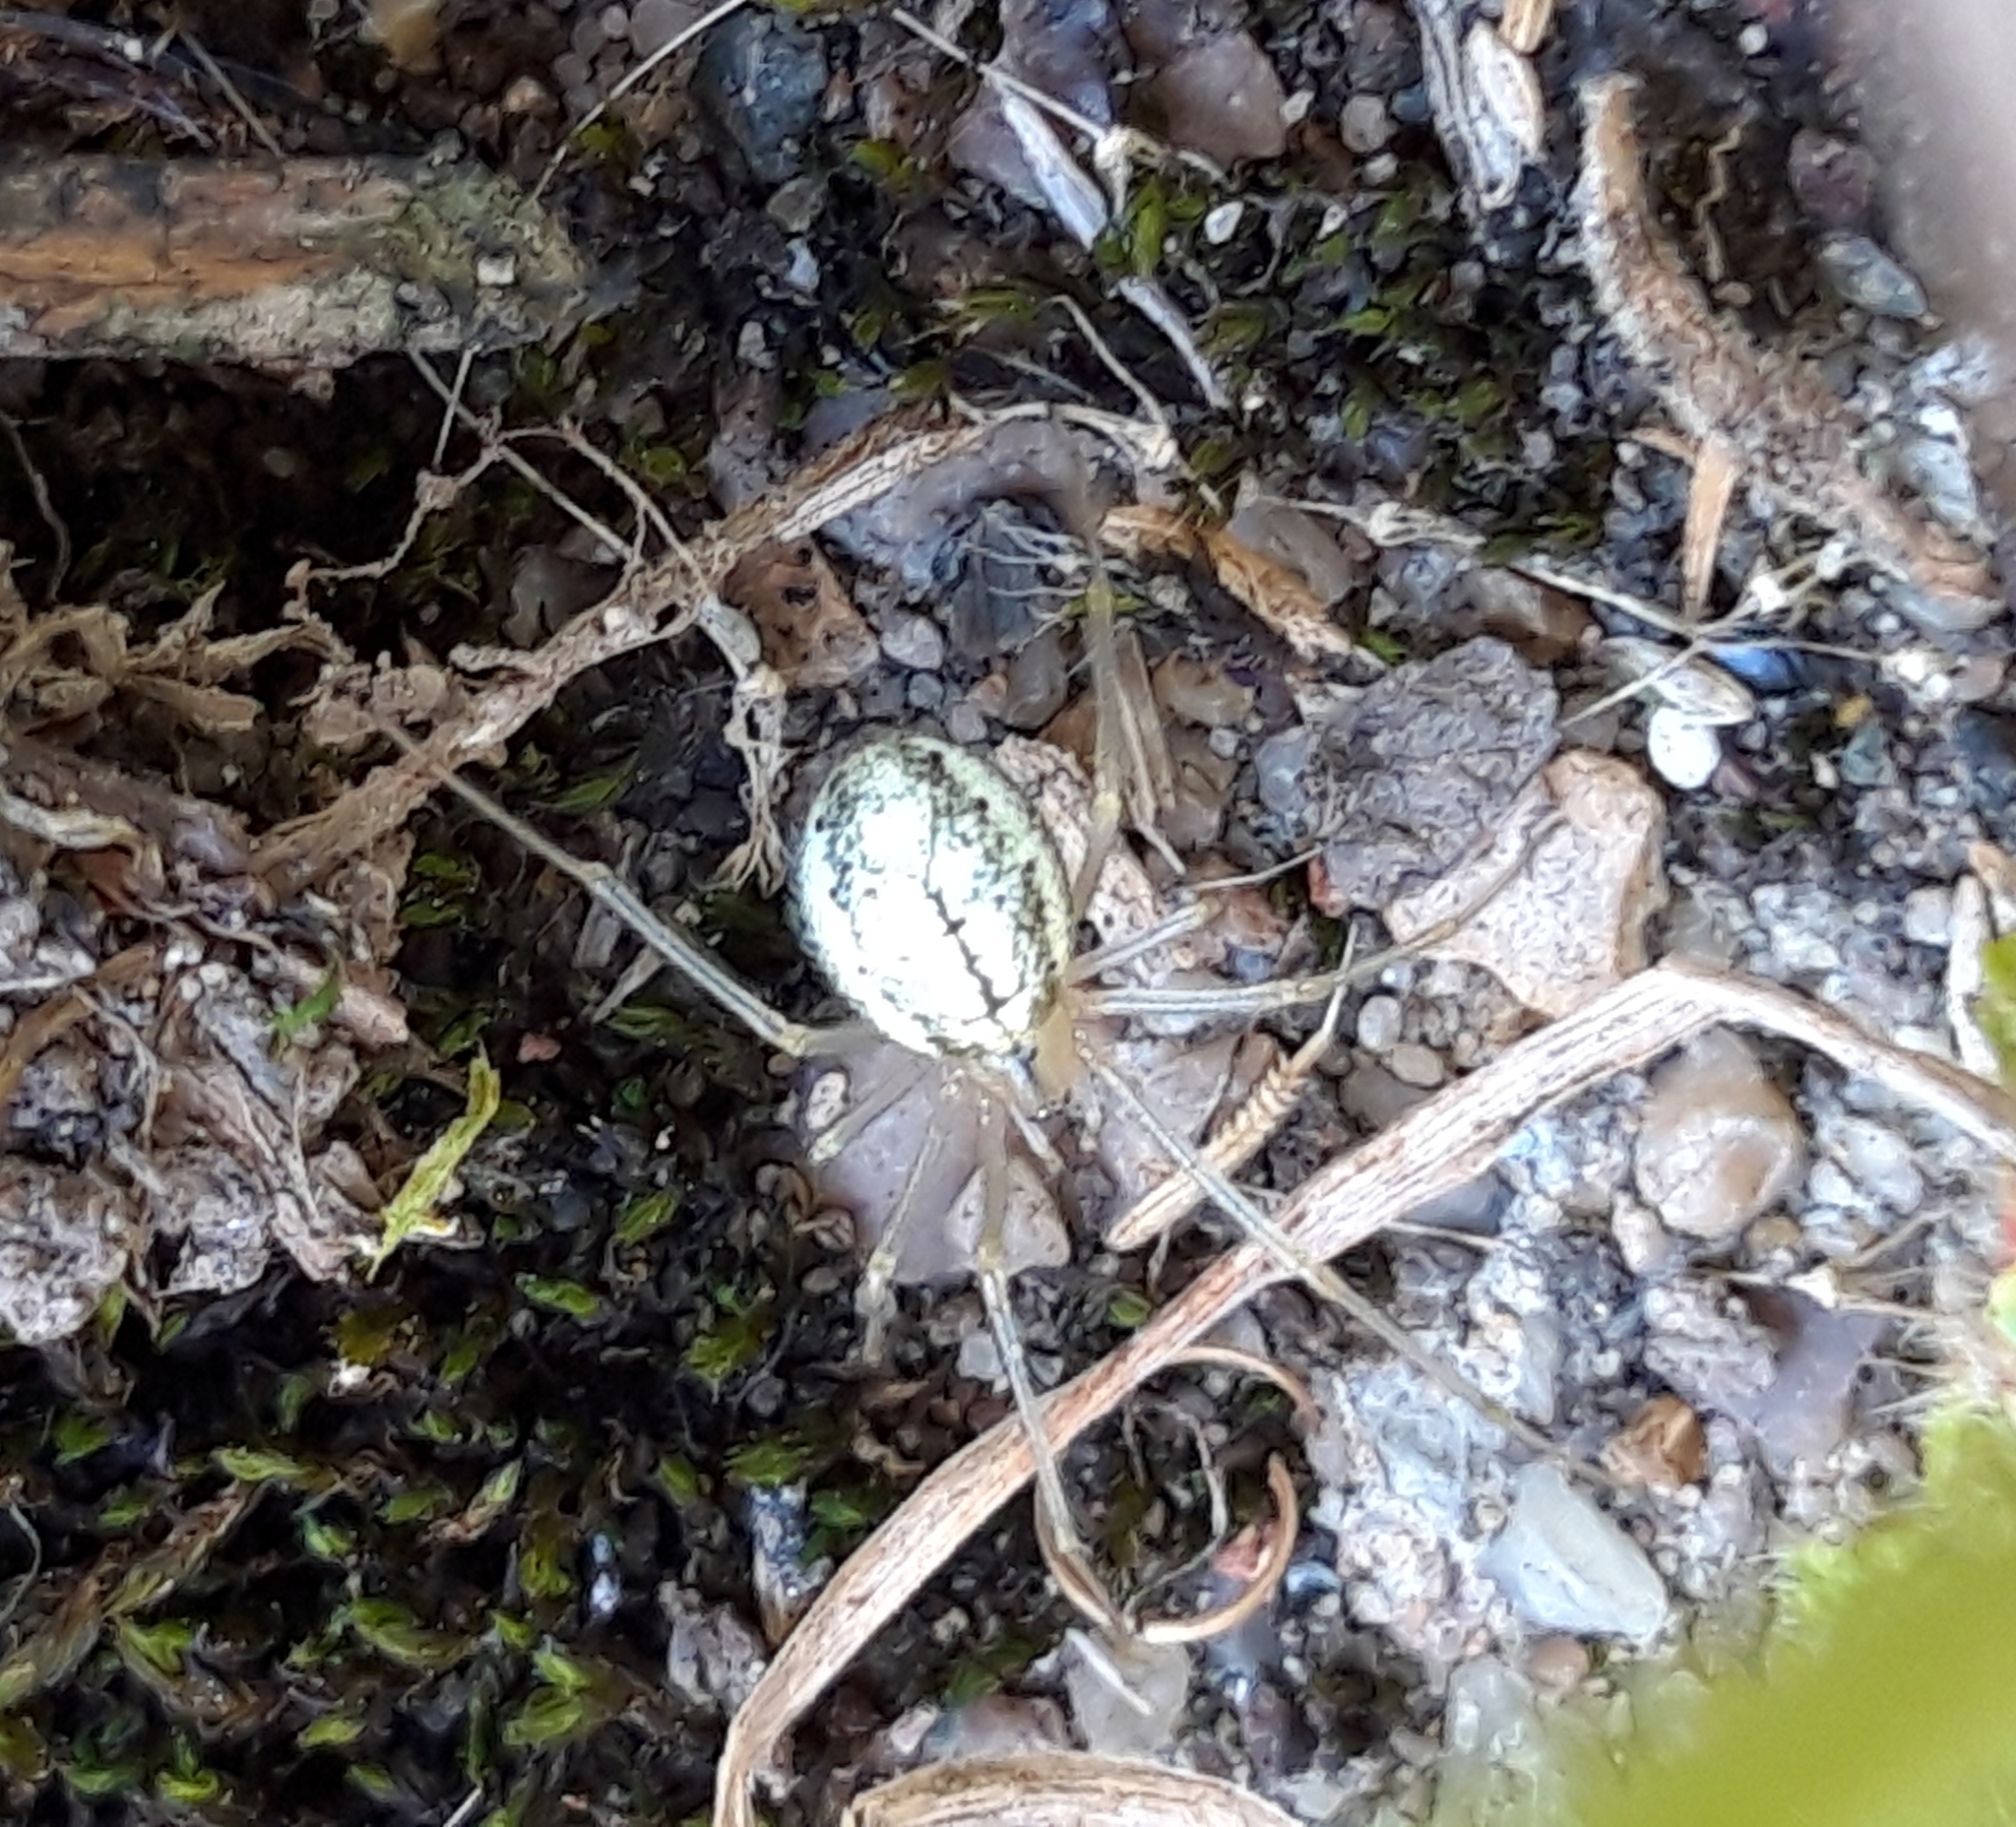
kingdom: Animalia
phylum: Arthropoda
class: Arachnida
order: Araneae
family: Theridiidae
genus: Enoplognatha
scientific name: Enoplognatha ovata
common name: Common candy-striped spider
